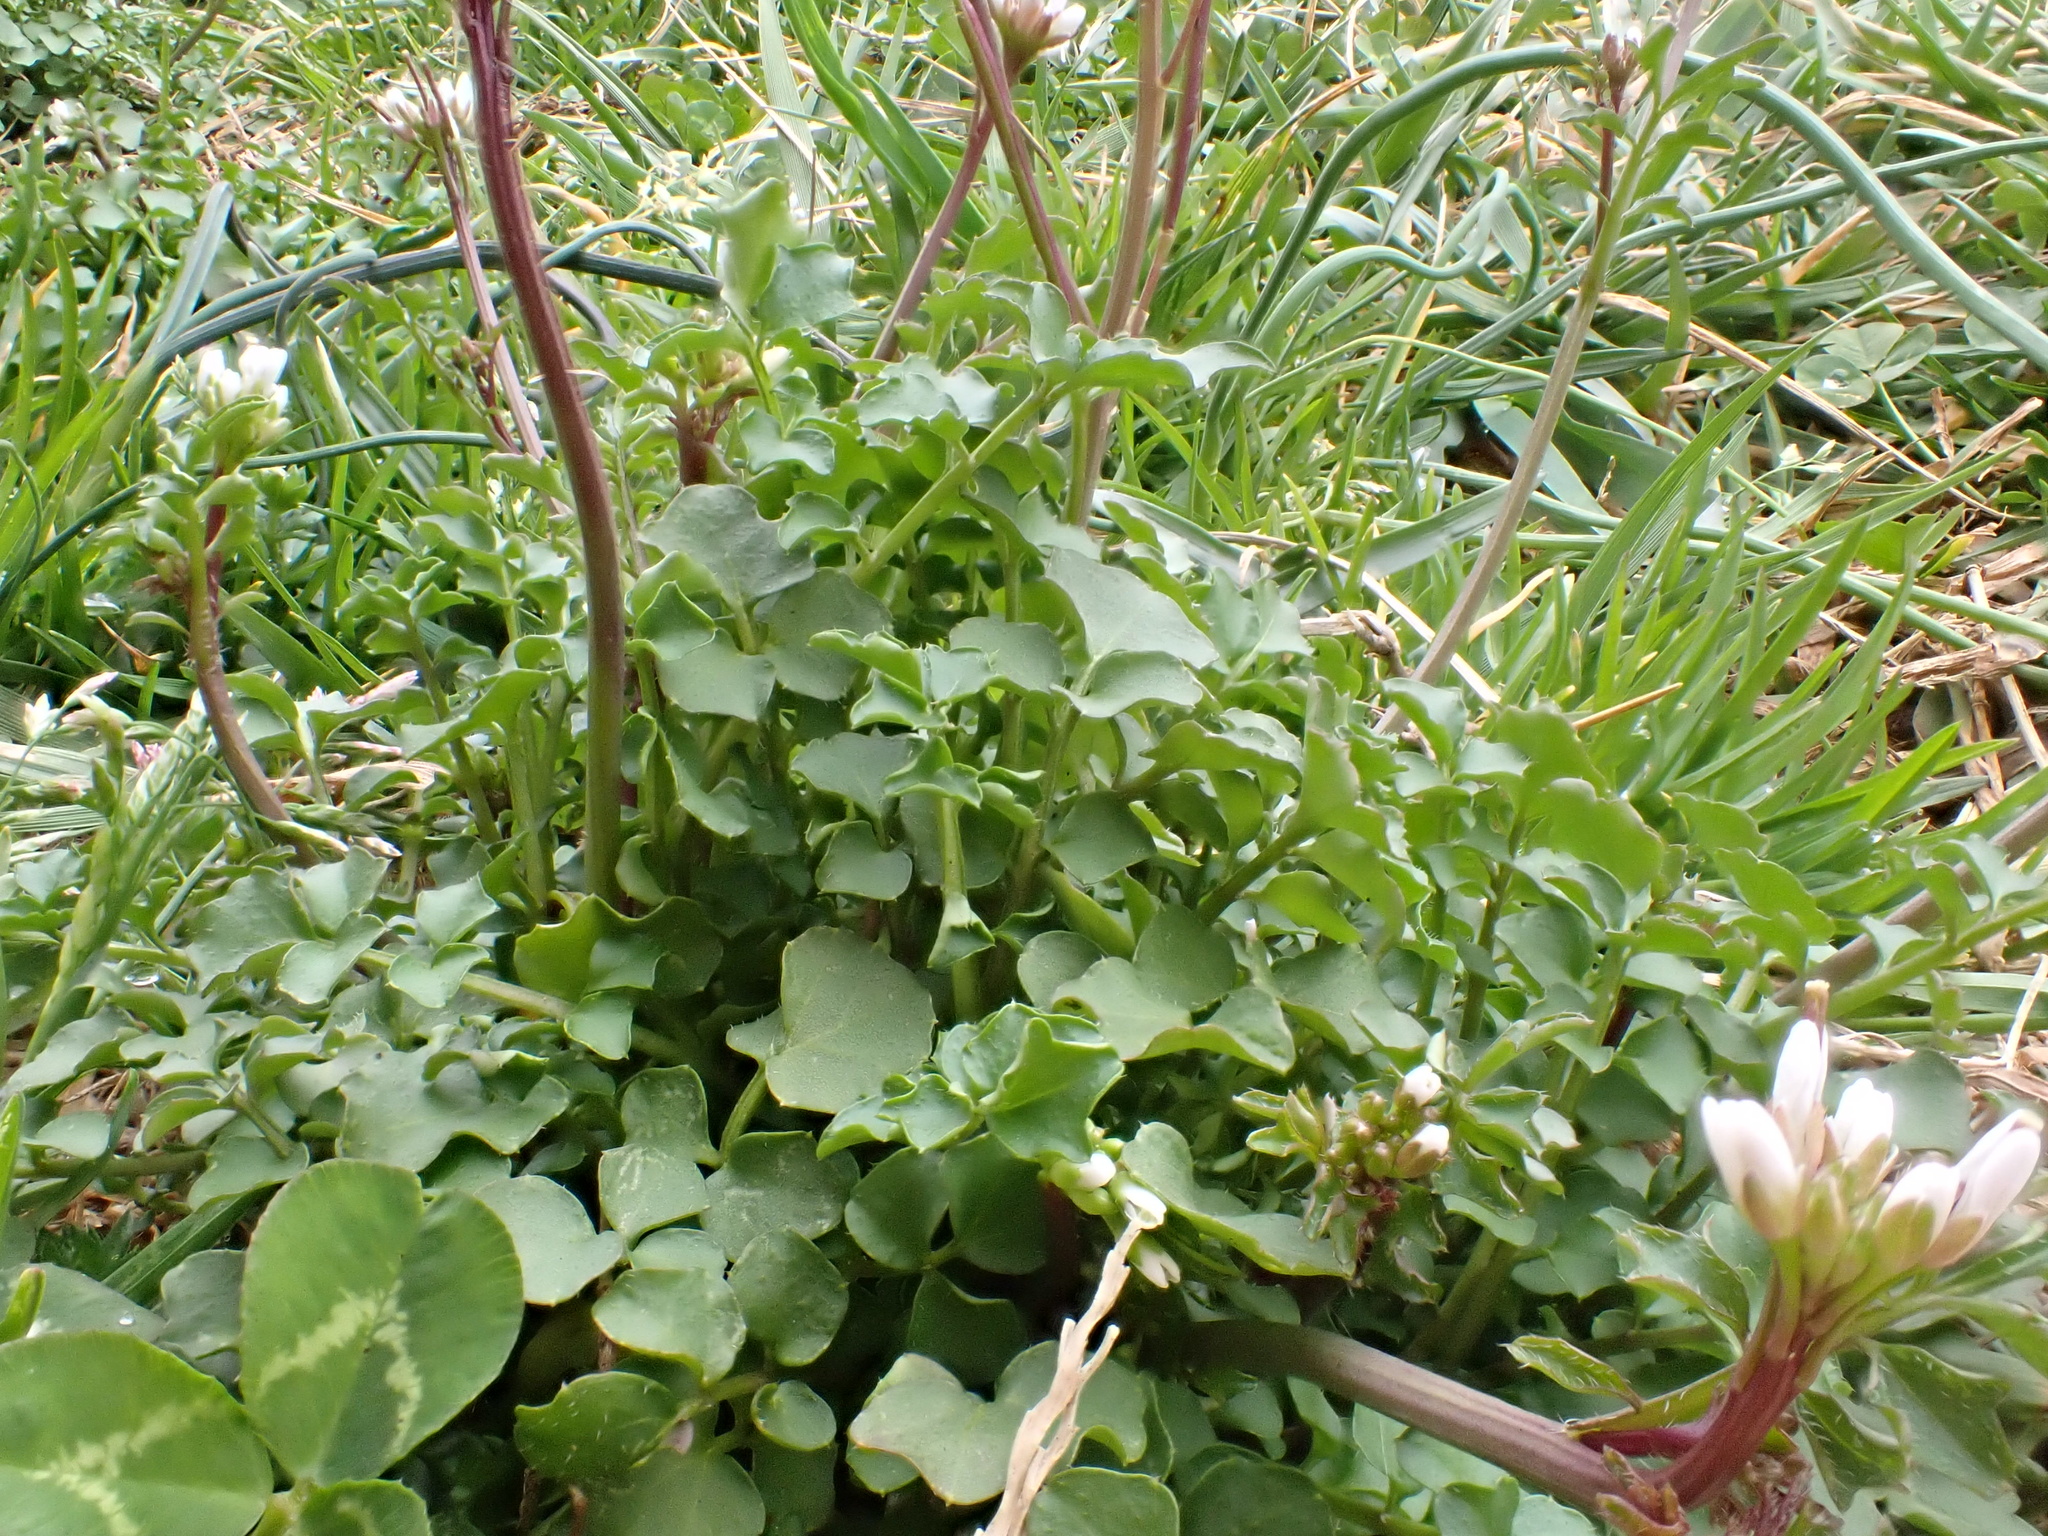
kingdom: Plantae
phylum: Tracheophyta
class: Magnoliopsida
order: Brassicales
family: Brassicaceae
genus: Cardamine
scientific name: Cardamine hirsuta
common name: Hairy bittercress
